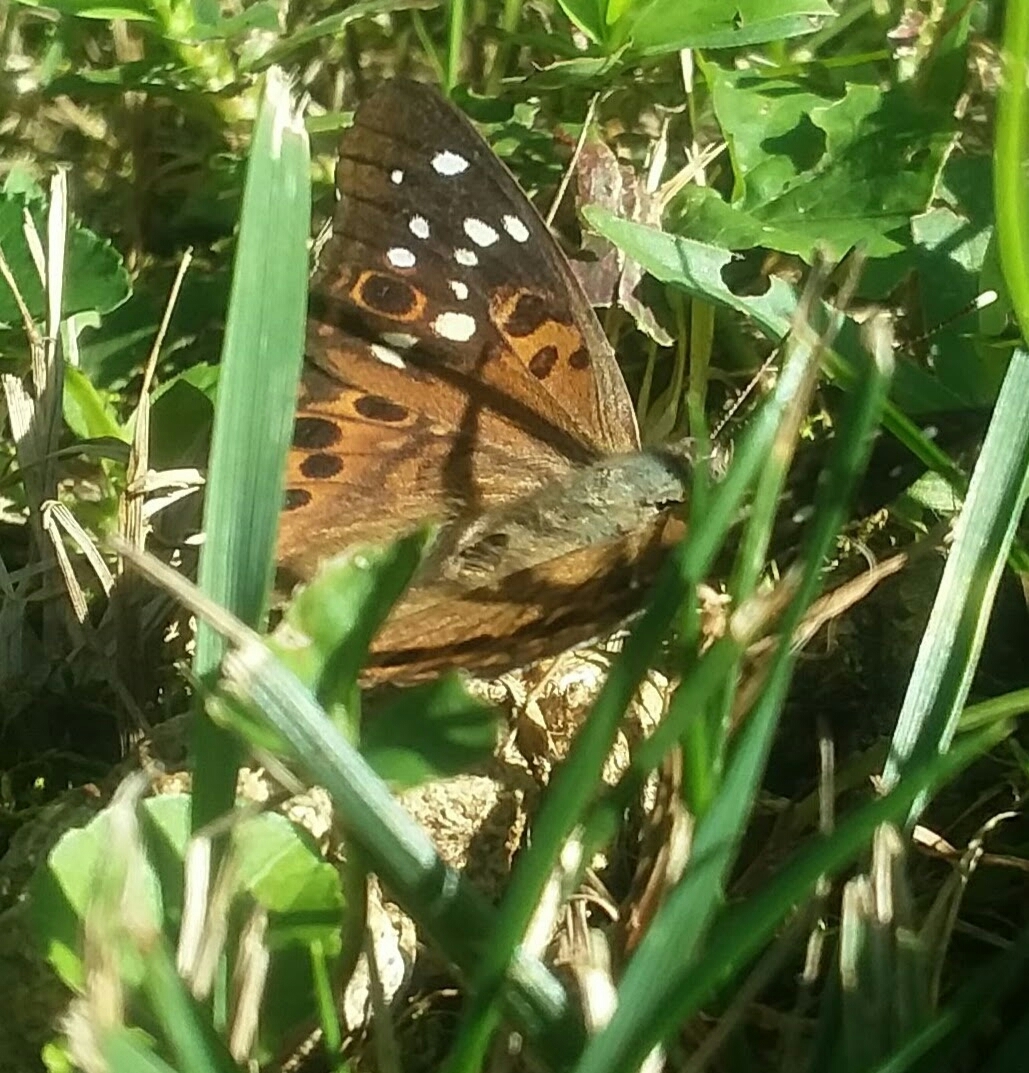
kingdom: Animalia
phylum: Arthropoda
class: Insecta
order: Lepidoptera
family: Nymphalidae
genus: Asterocampa
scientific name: Asterocampa celtis
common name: Hackberry emperor
